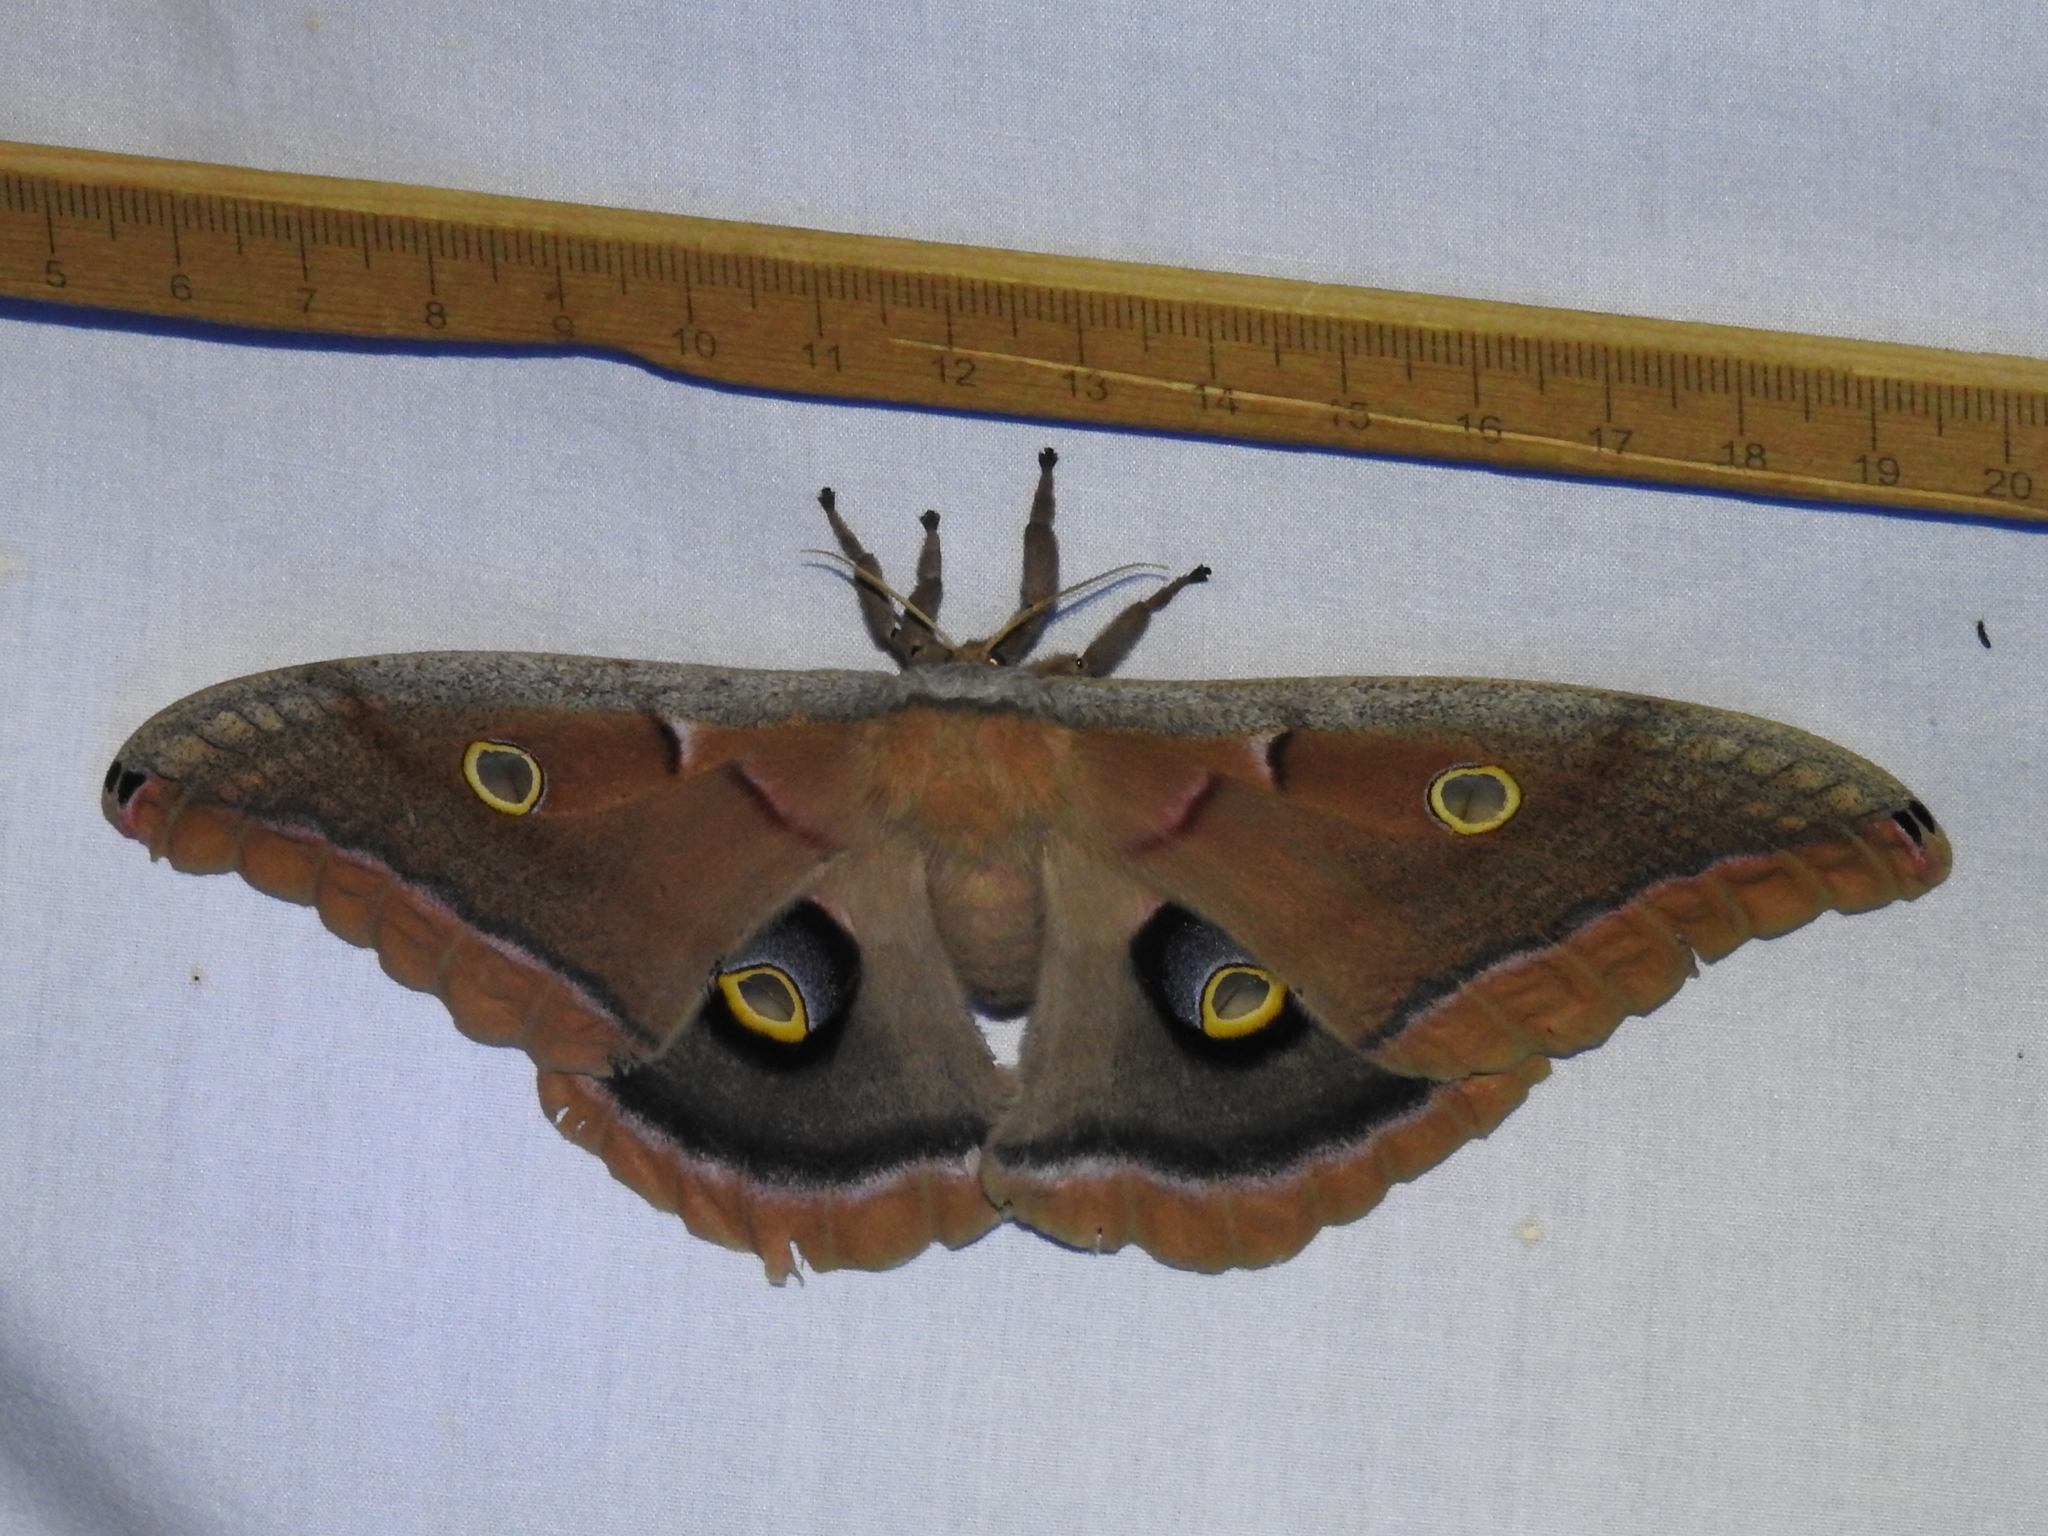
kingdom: Animalia
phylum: Arthropoda
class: Insecta
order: Lepidoptera
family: Saturniidae
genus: Antheraea
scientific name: Antheraea polyphemus
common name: Polyphemus moth
